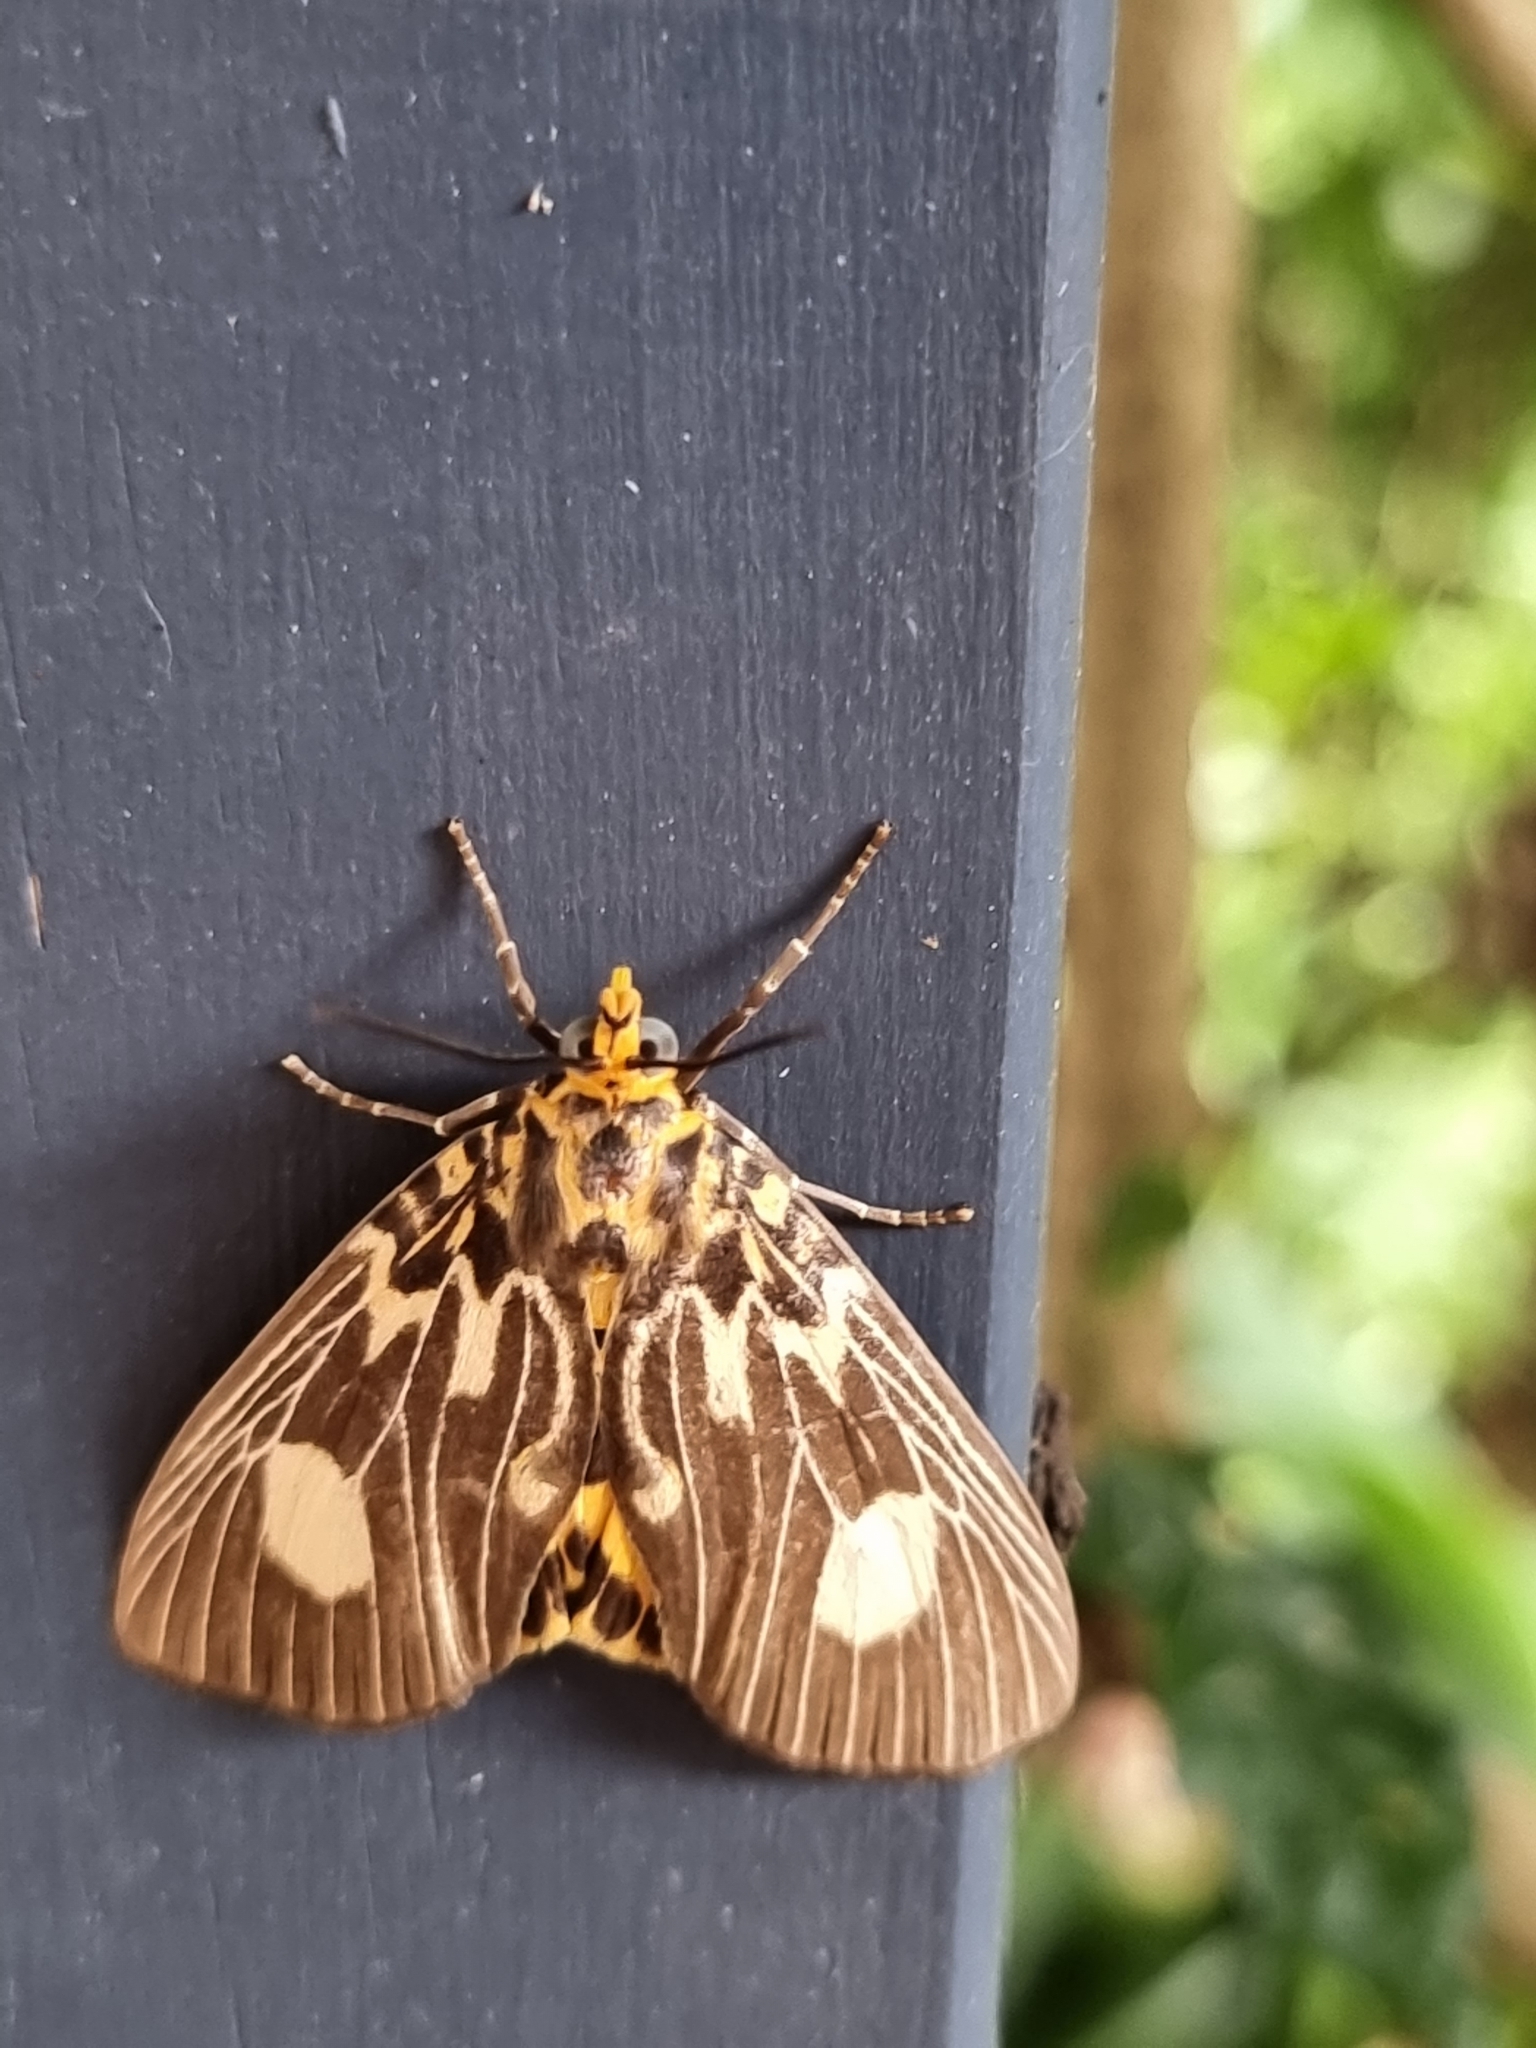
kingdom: Animalia
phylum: Arthropoda
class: Insecta
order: Lepidoptera
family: Erebidae
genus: Asota
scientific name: Asota plagiata
